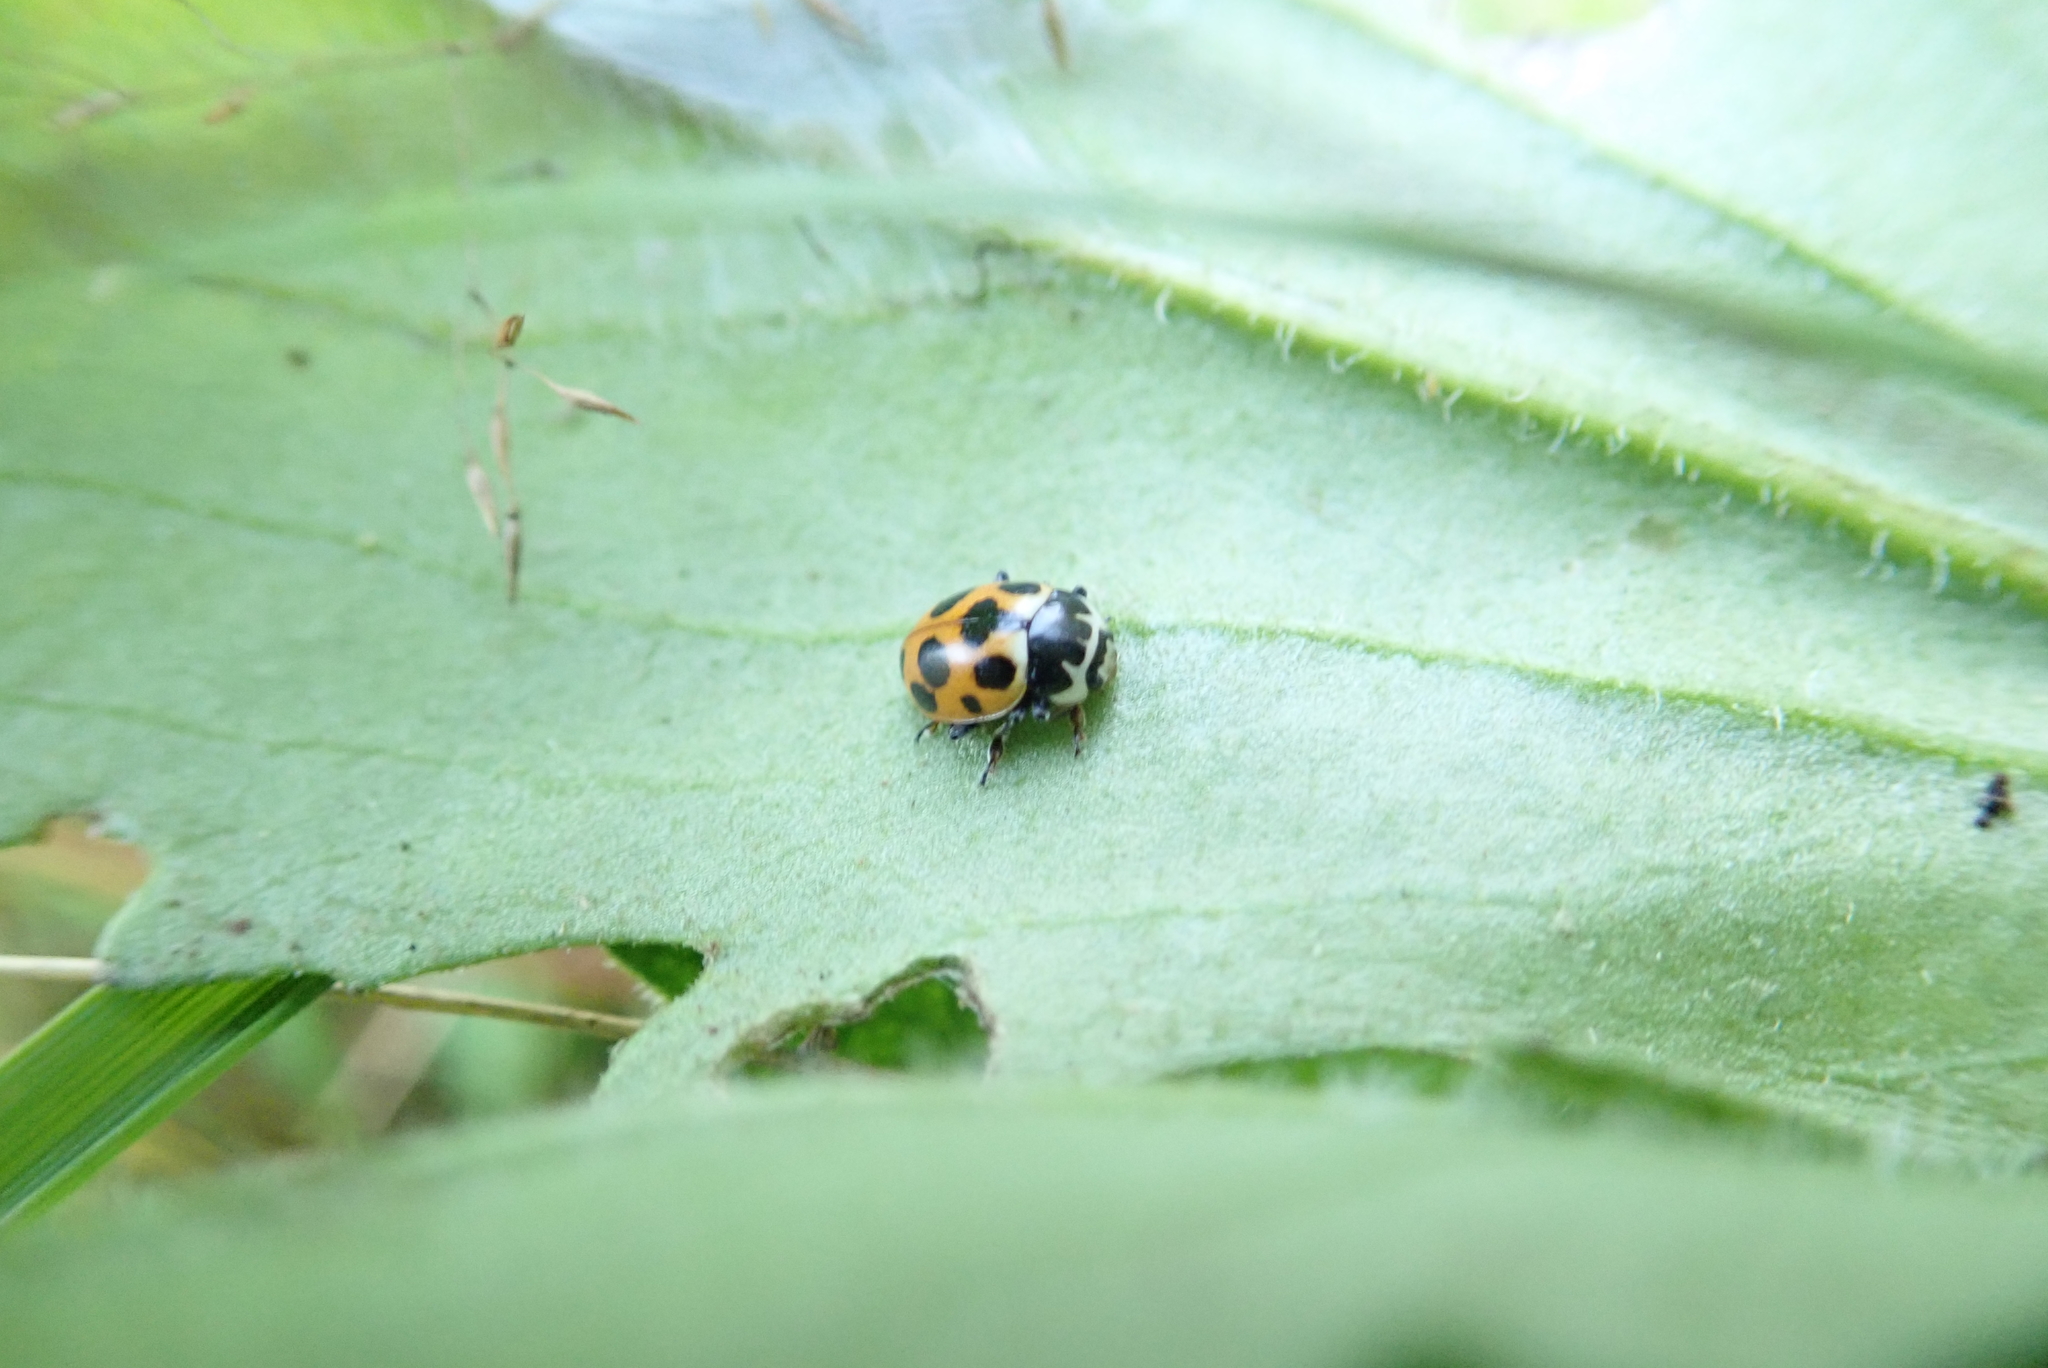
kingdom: Animalia
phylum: Arthropoda
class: Insecta
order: Coleoptera
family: Coccinellidae
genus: Ceratomegilla
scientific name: Ceratomegilla notata
